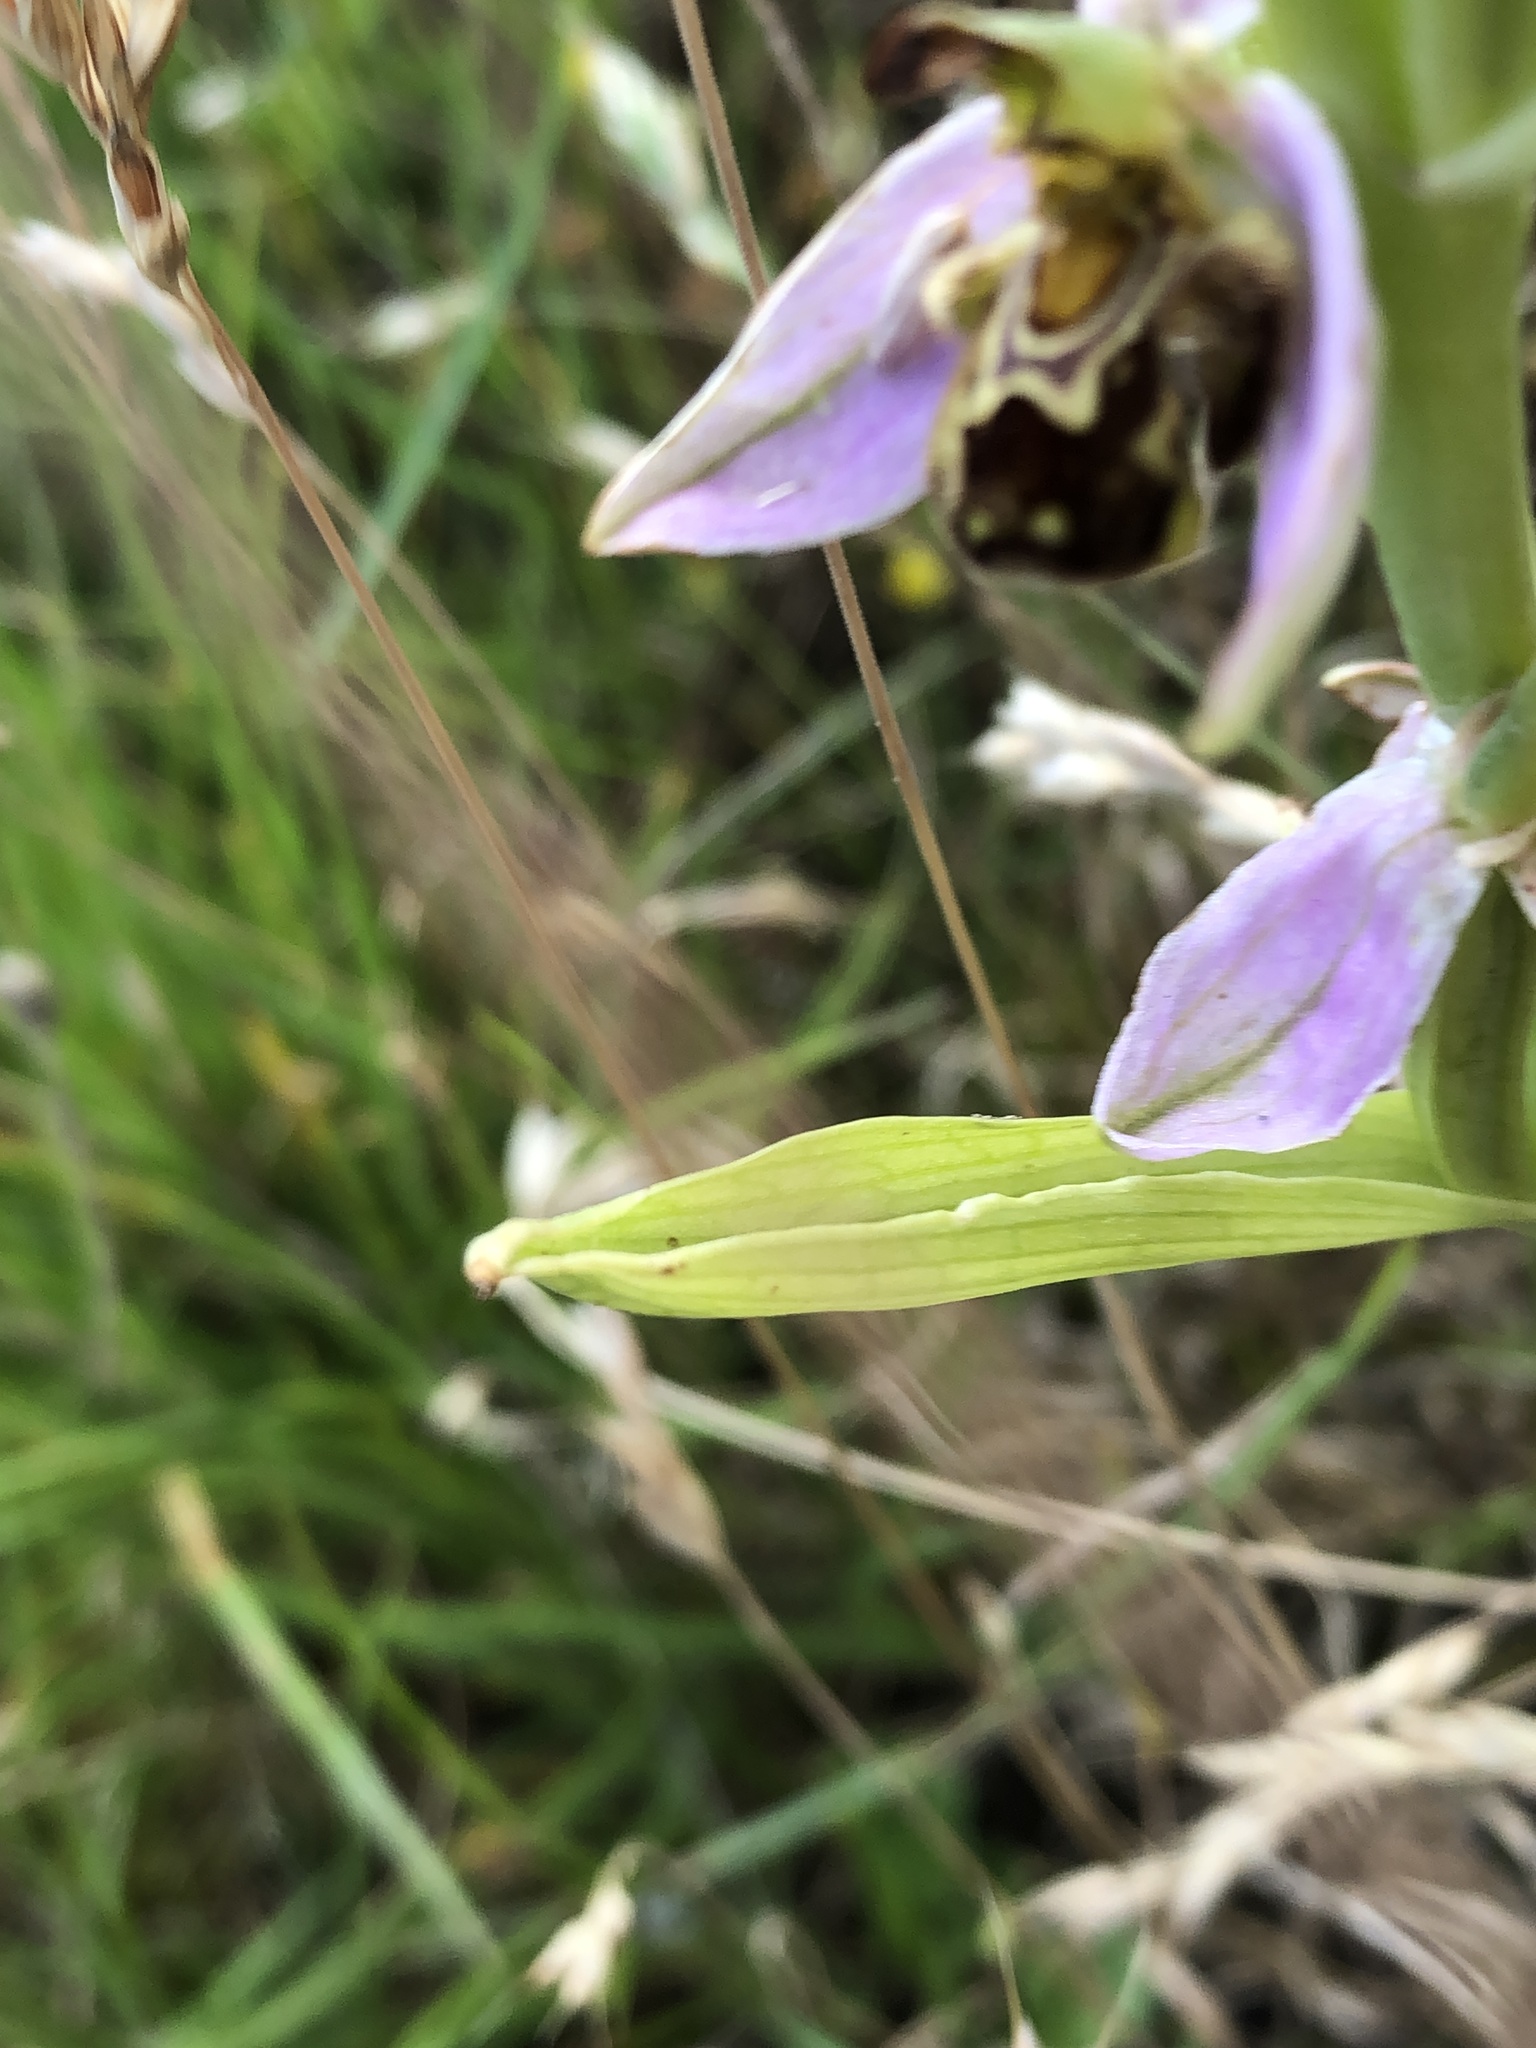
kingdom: Plantae
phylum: Tracheophyta
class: Liliopsida
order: Asparagales
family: Orchidaceae
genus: Ophrys
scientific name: Ophrys apifera
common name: Bee orchid
